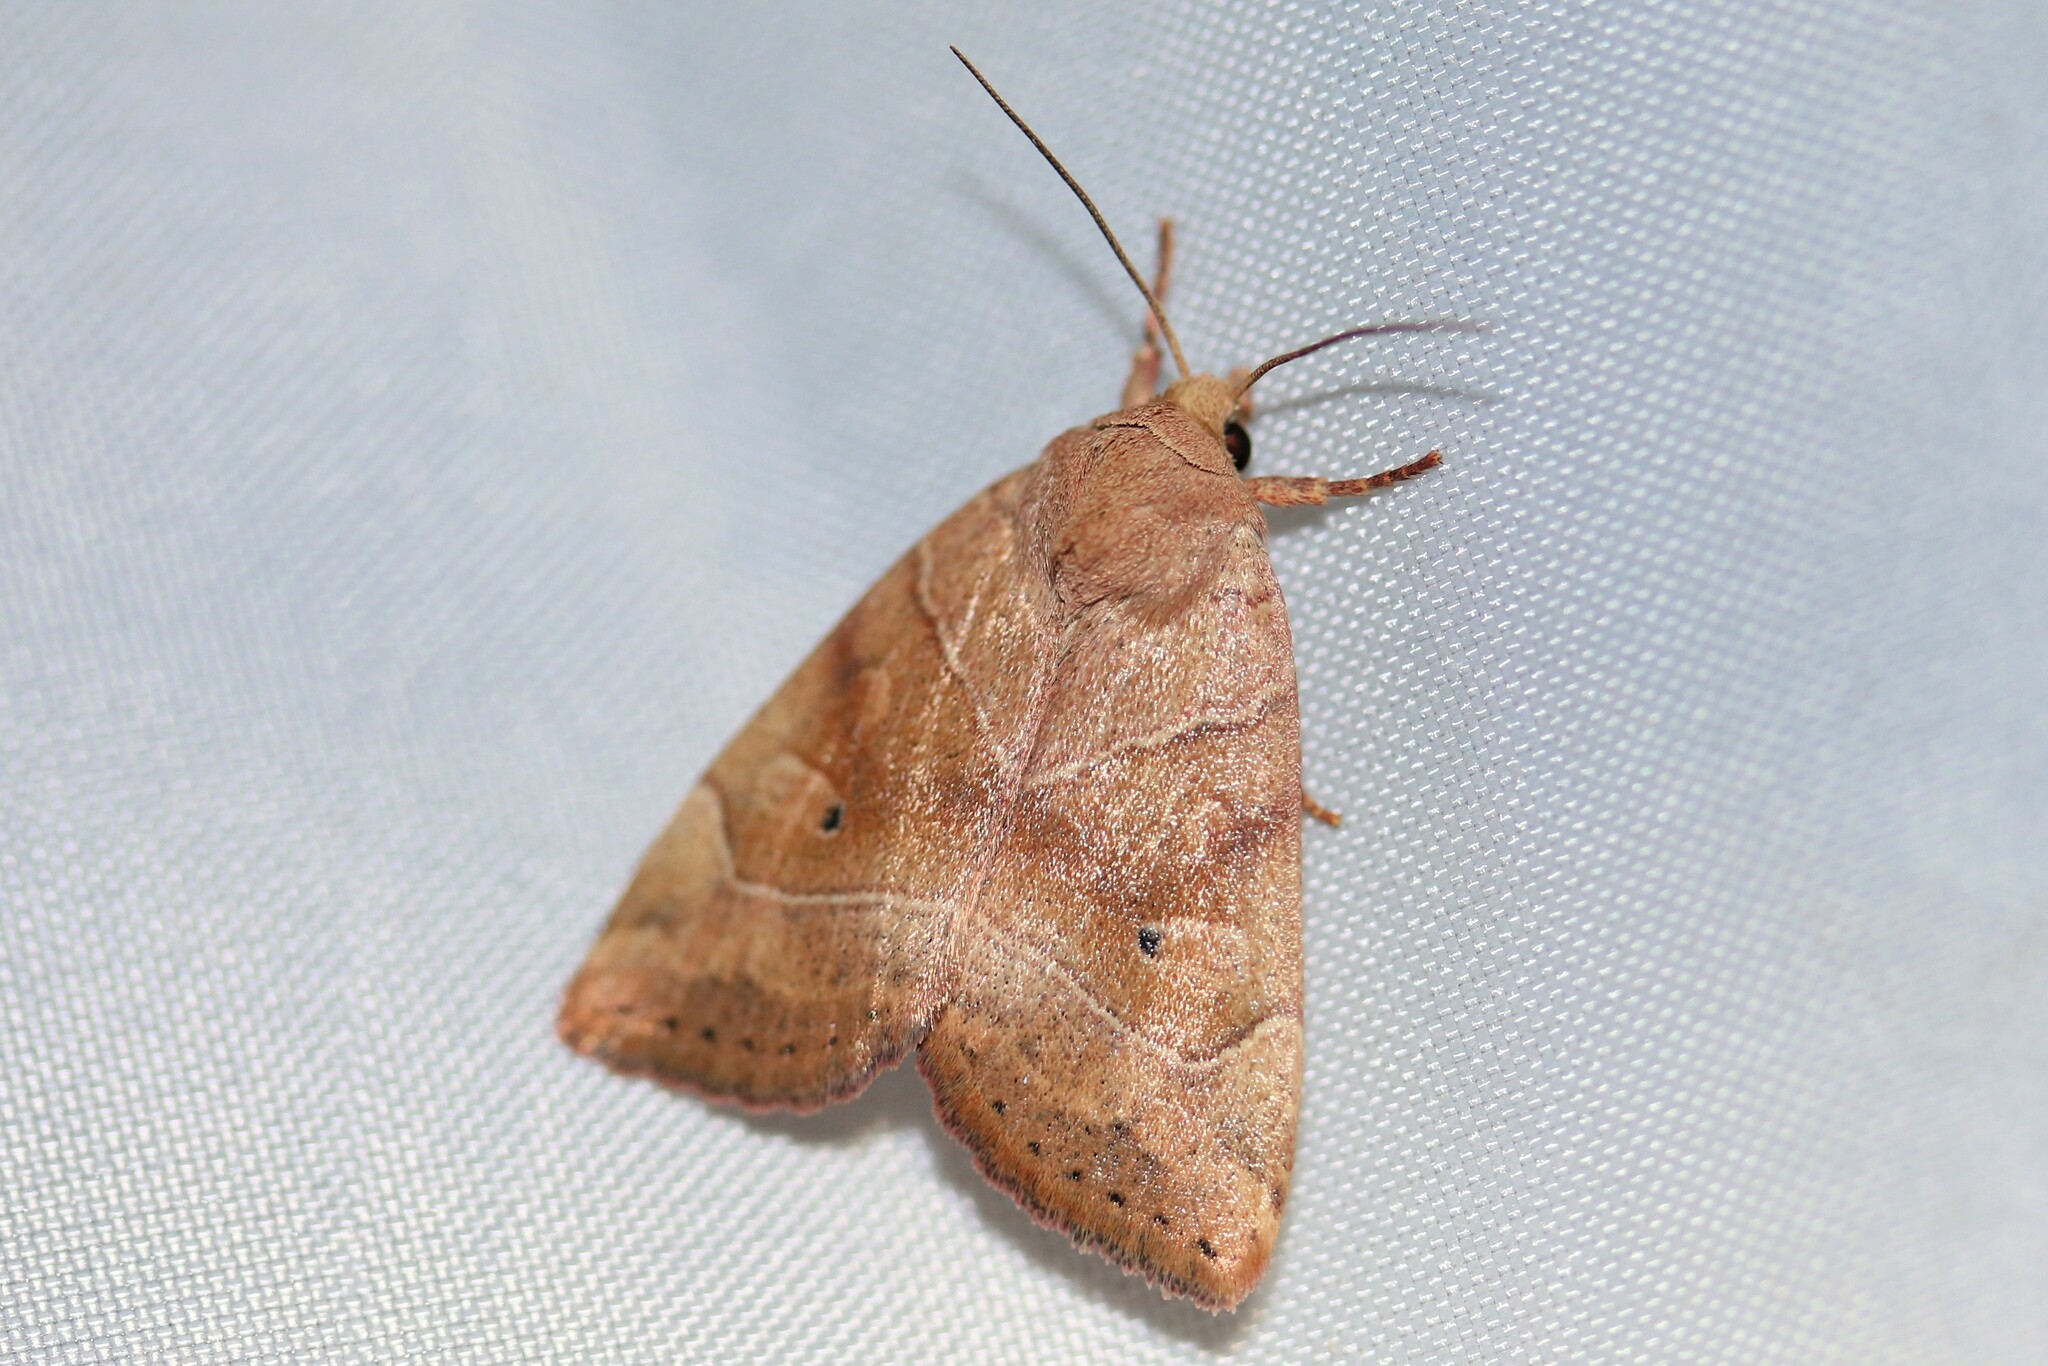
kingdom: Animalia
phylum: Arthropoda
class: Insecta
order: Lepidoptera
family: Noctuidae
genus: Cosmia
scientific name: Cosmia trapezina
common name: Dun-bar
